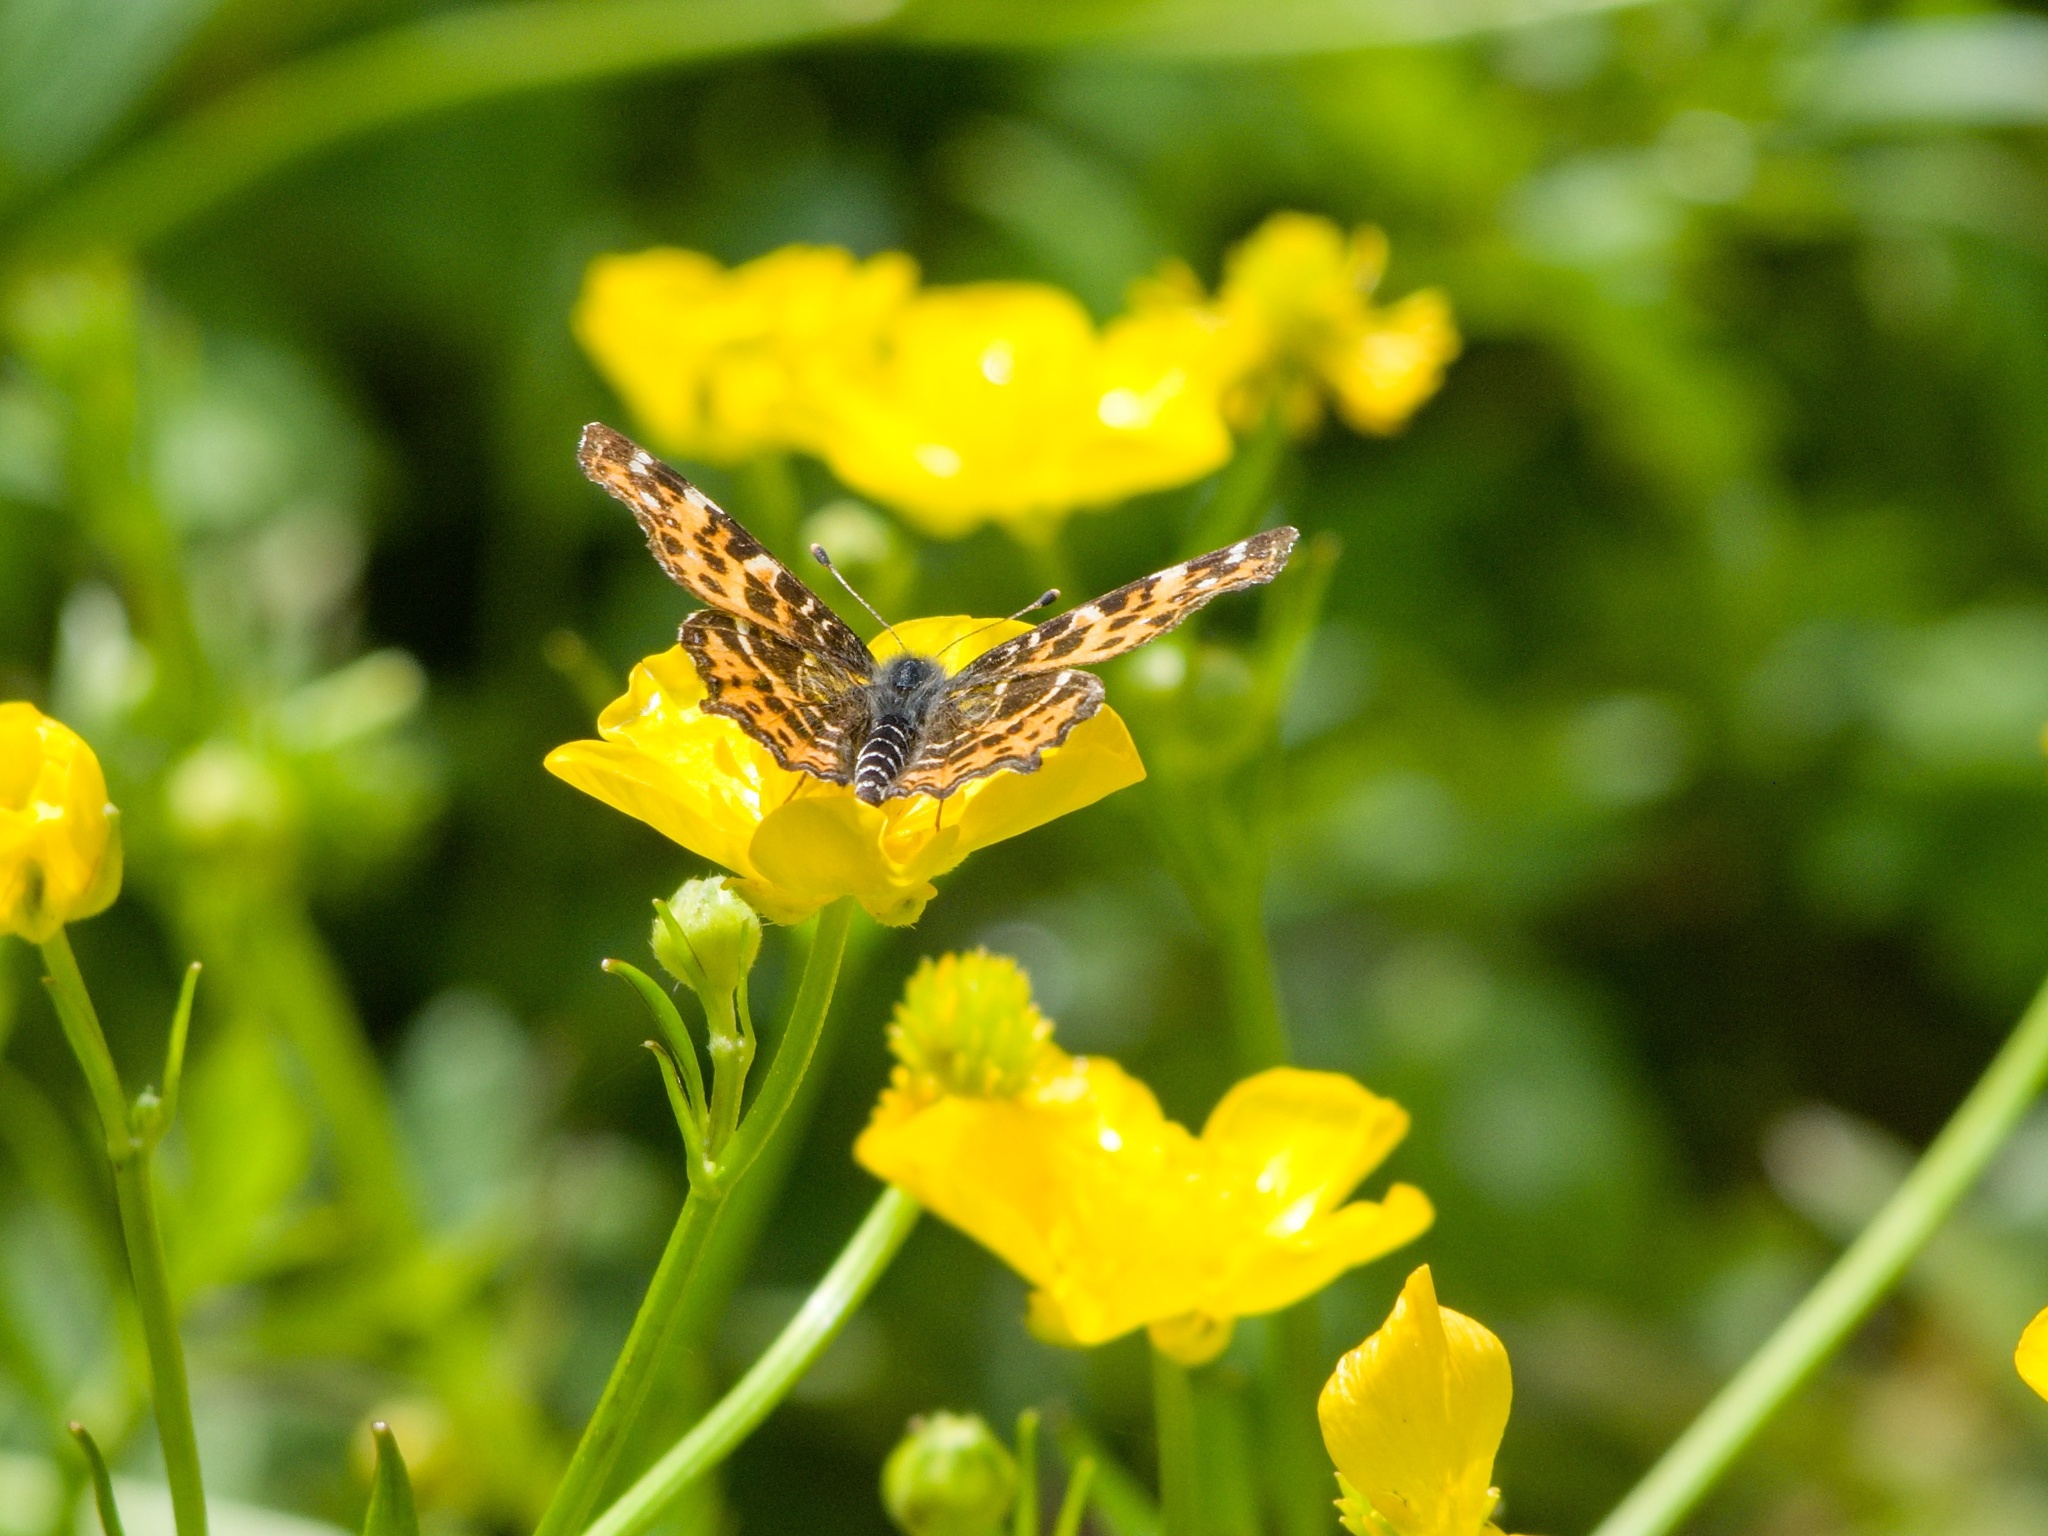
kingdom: Animalia
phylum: Arthropoda
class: Insecta
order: Lepidoptera
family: Nymphalidae
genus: Araschnia
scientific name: Araschnia levana
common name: Map butterfly
